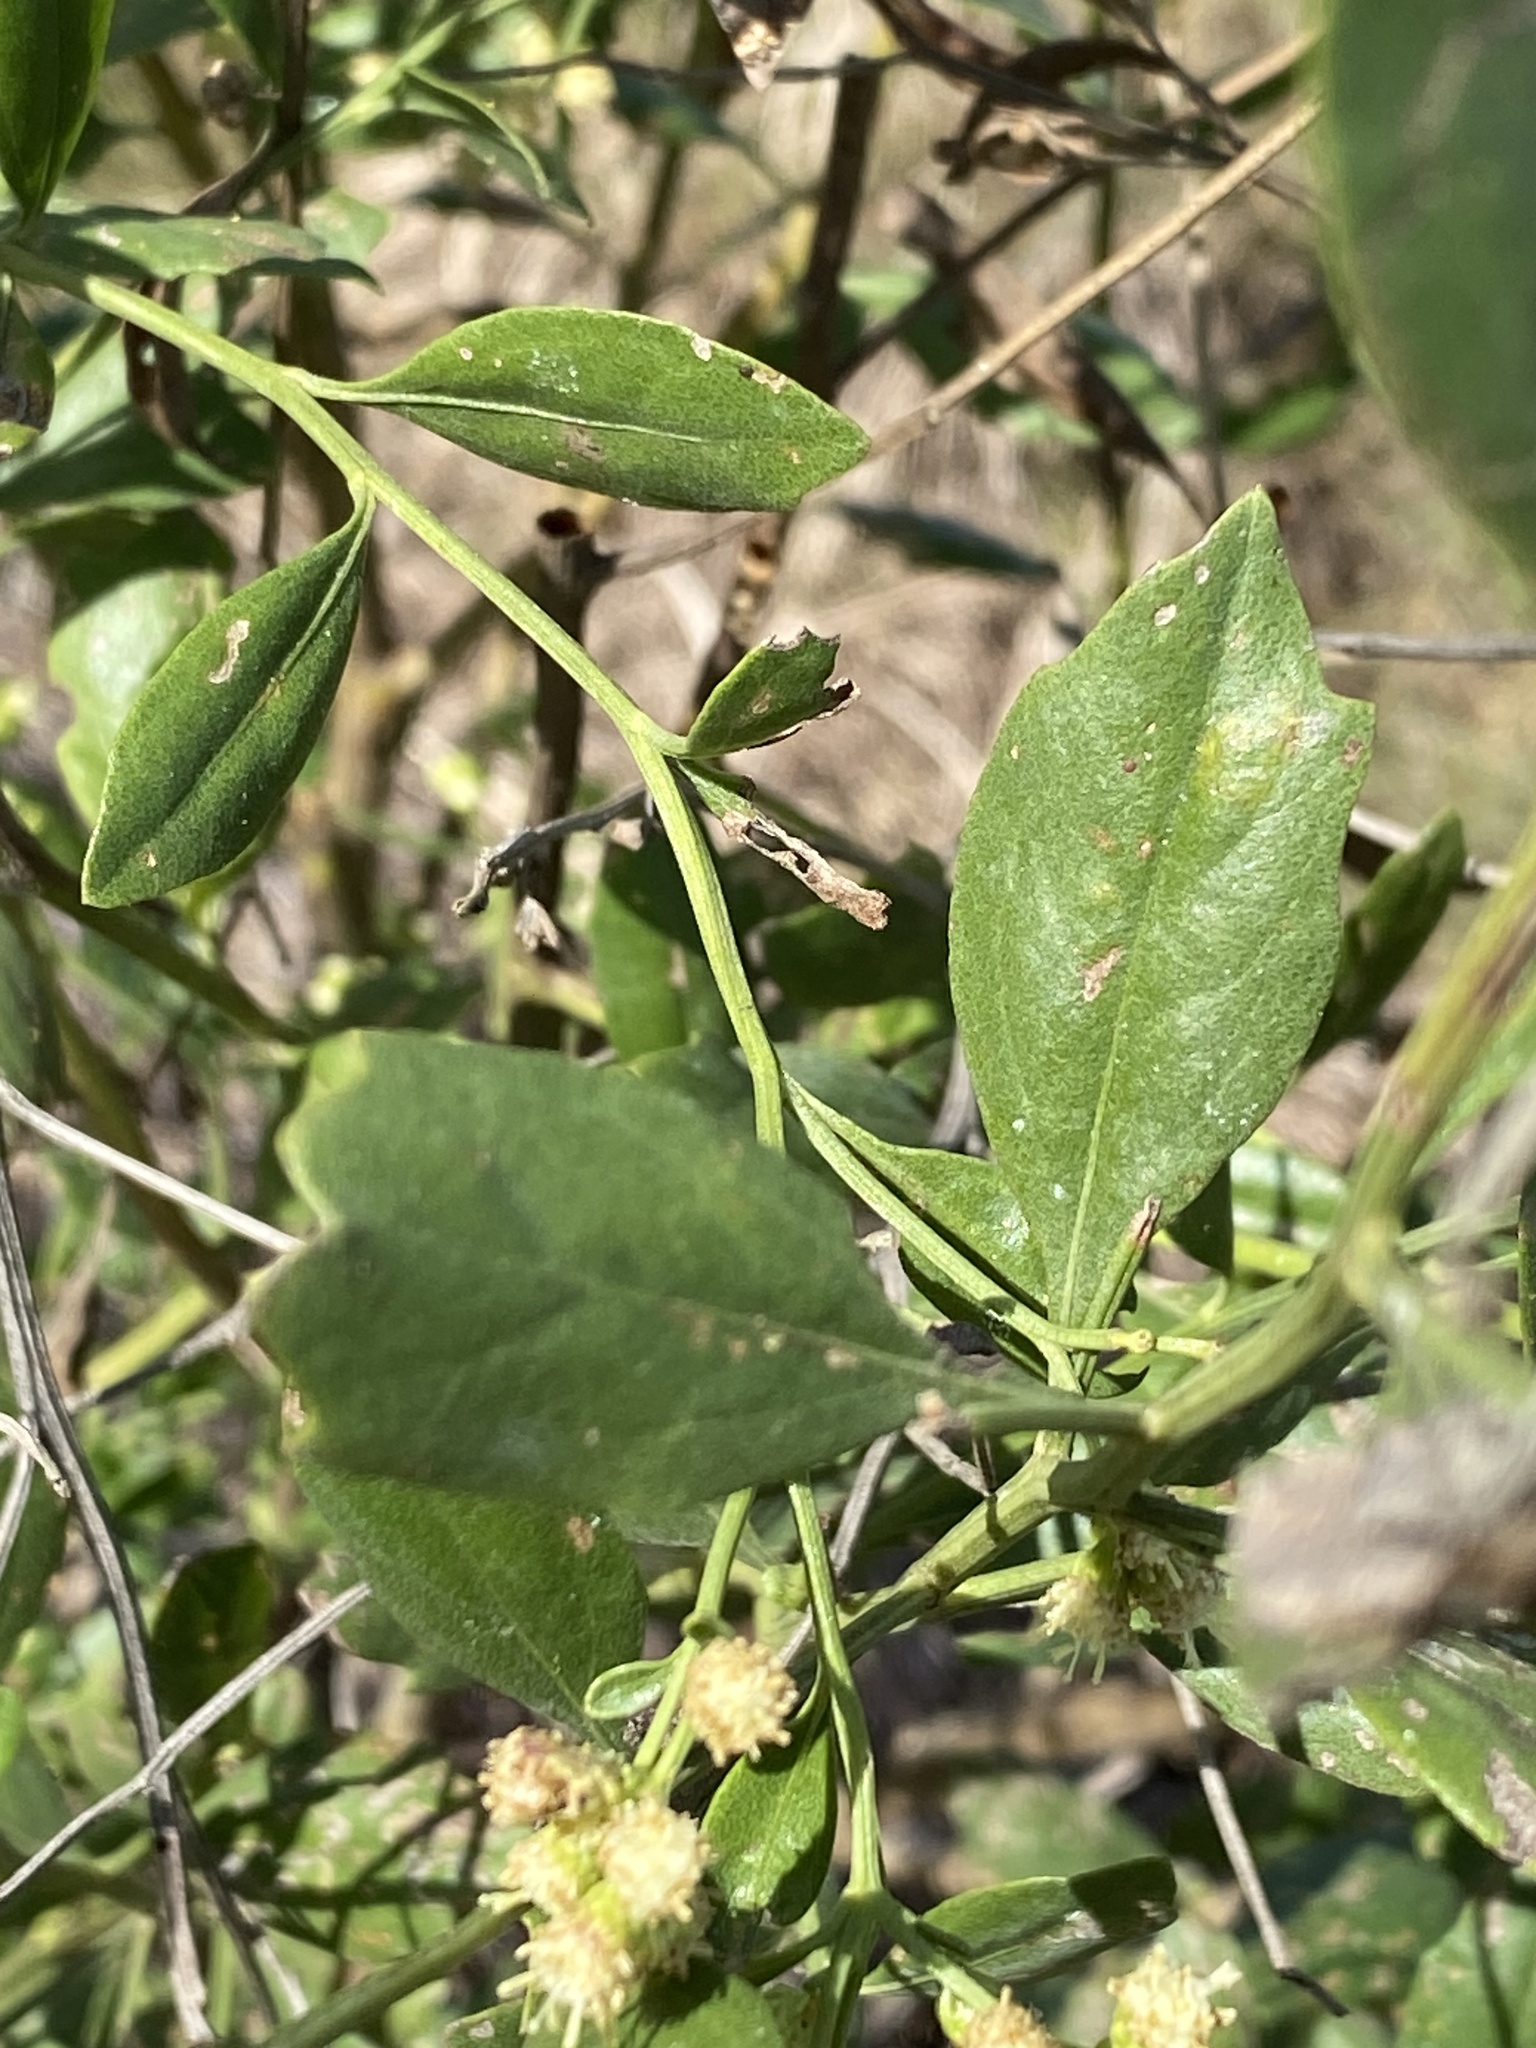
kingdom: Plantae
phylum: Tracheophyta
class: Magnoliopsida
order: Asterales
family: Asteraceae
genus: Baccharis
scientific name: Baccharis halimifolia
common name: Eastern baccharis
